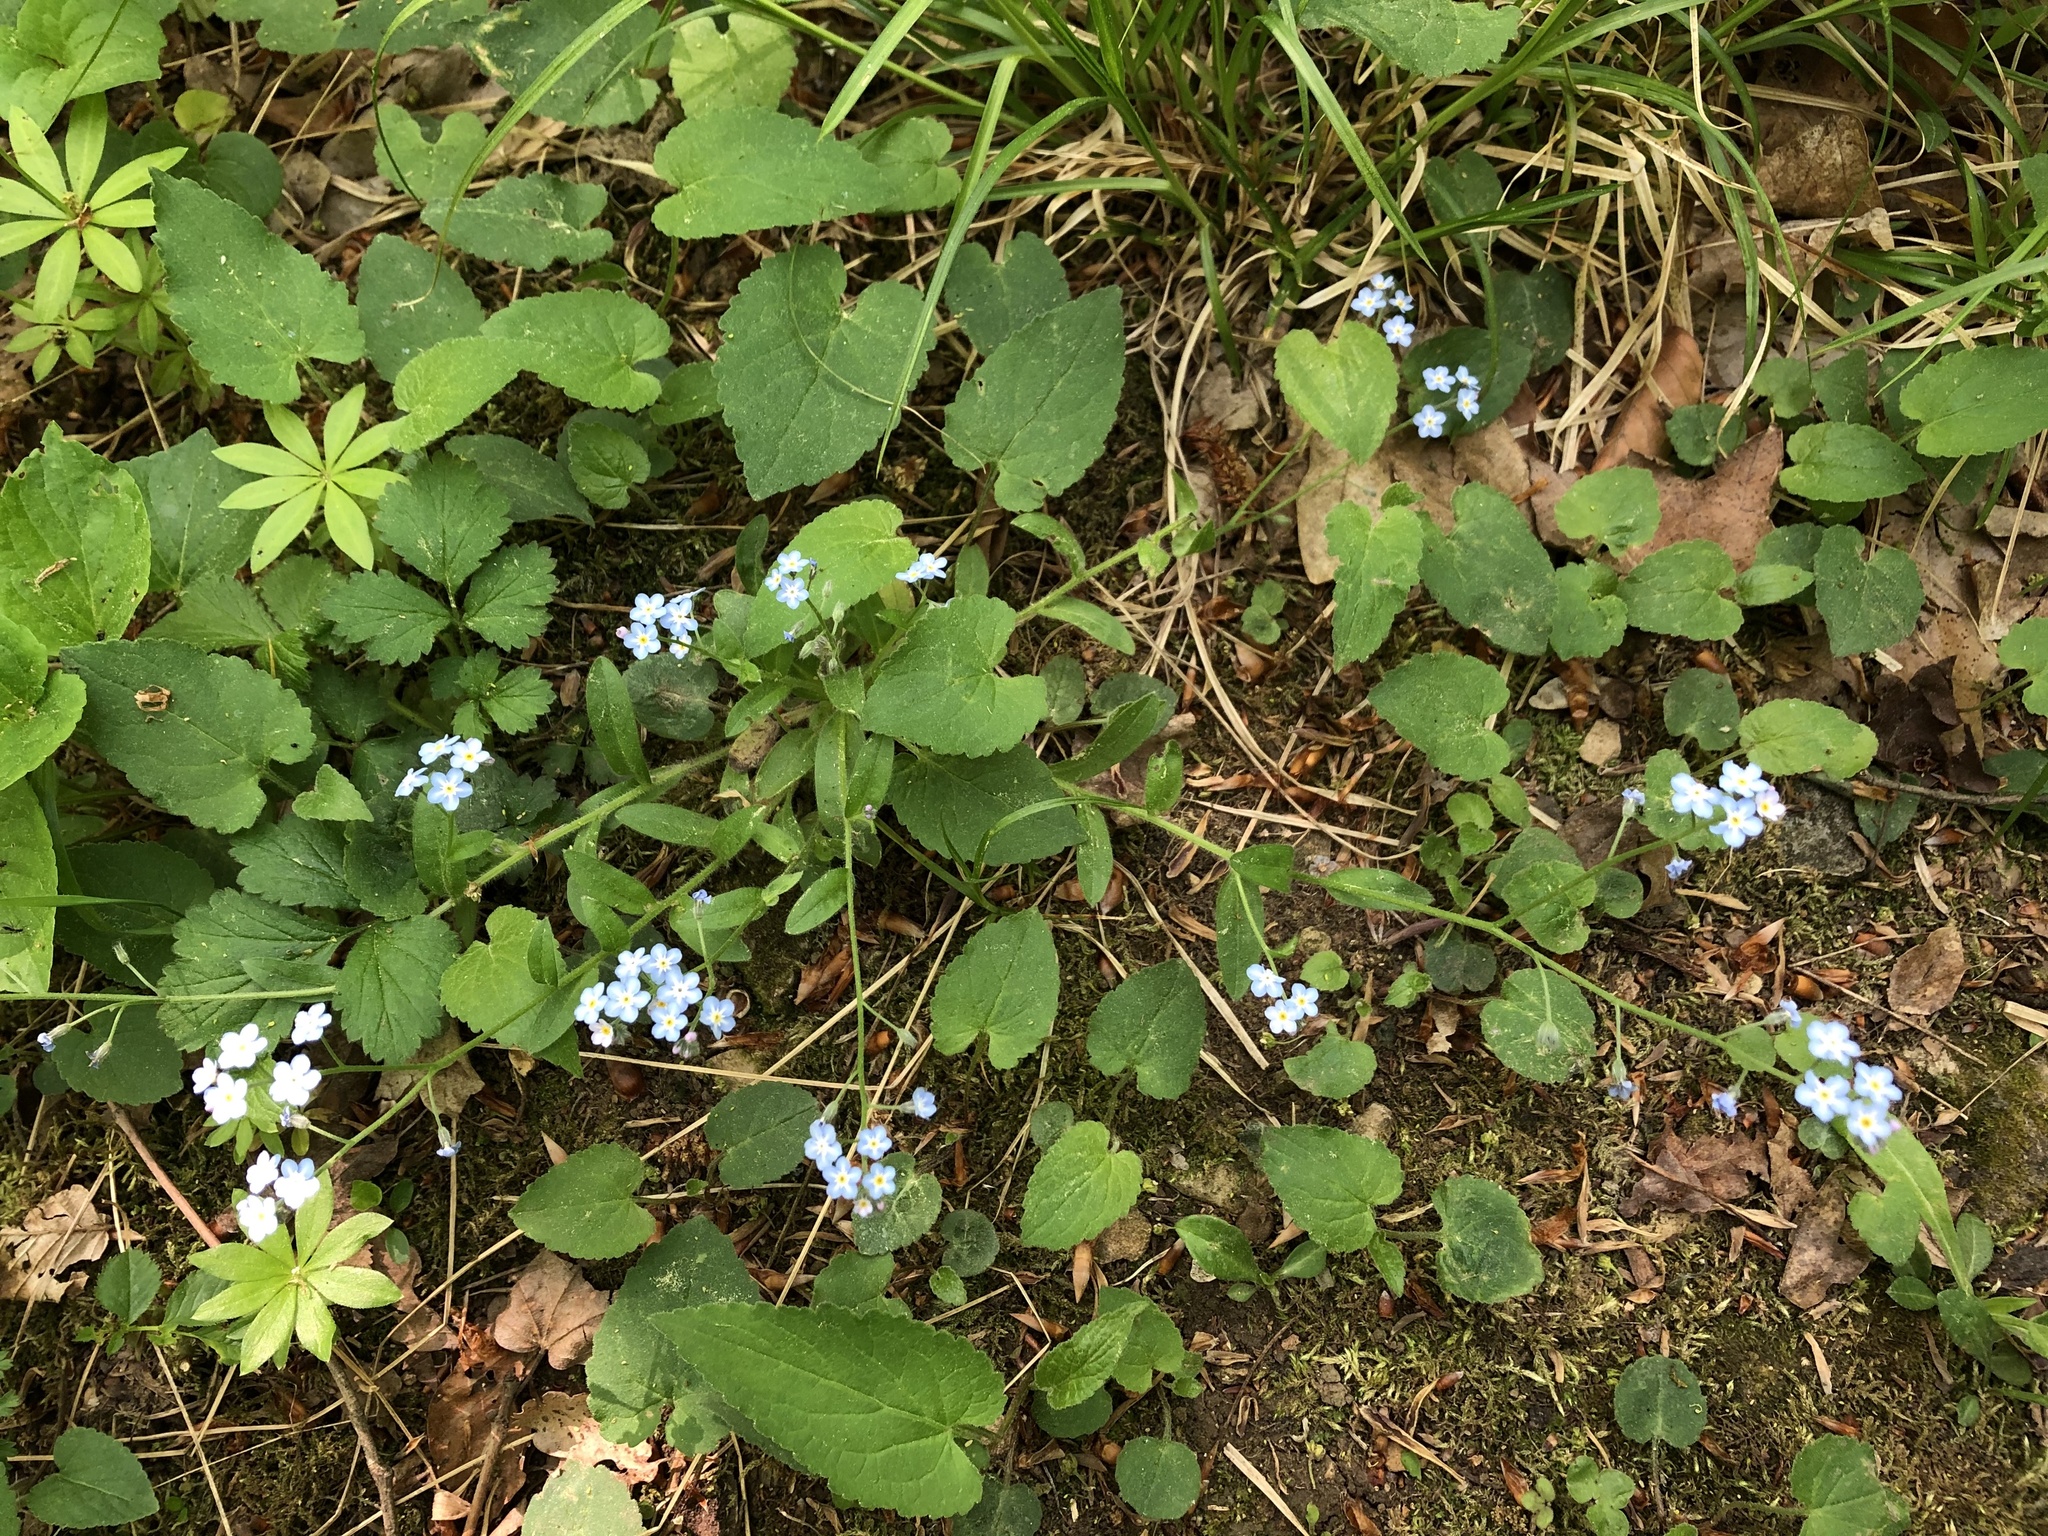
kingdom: Plantae
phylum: Tracheophyta
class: Magnoliopsida
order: Boraginales
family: Boraginaceae
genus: Myosotis
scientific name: Myosotis sylvatica
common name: Wood forget-me-not
